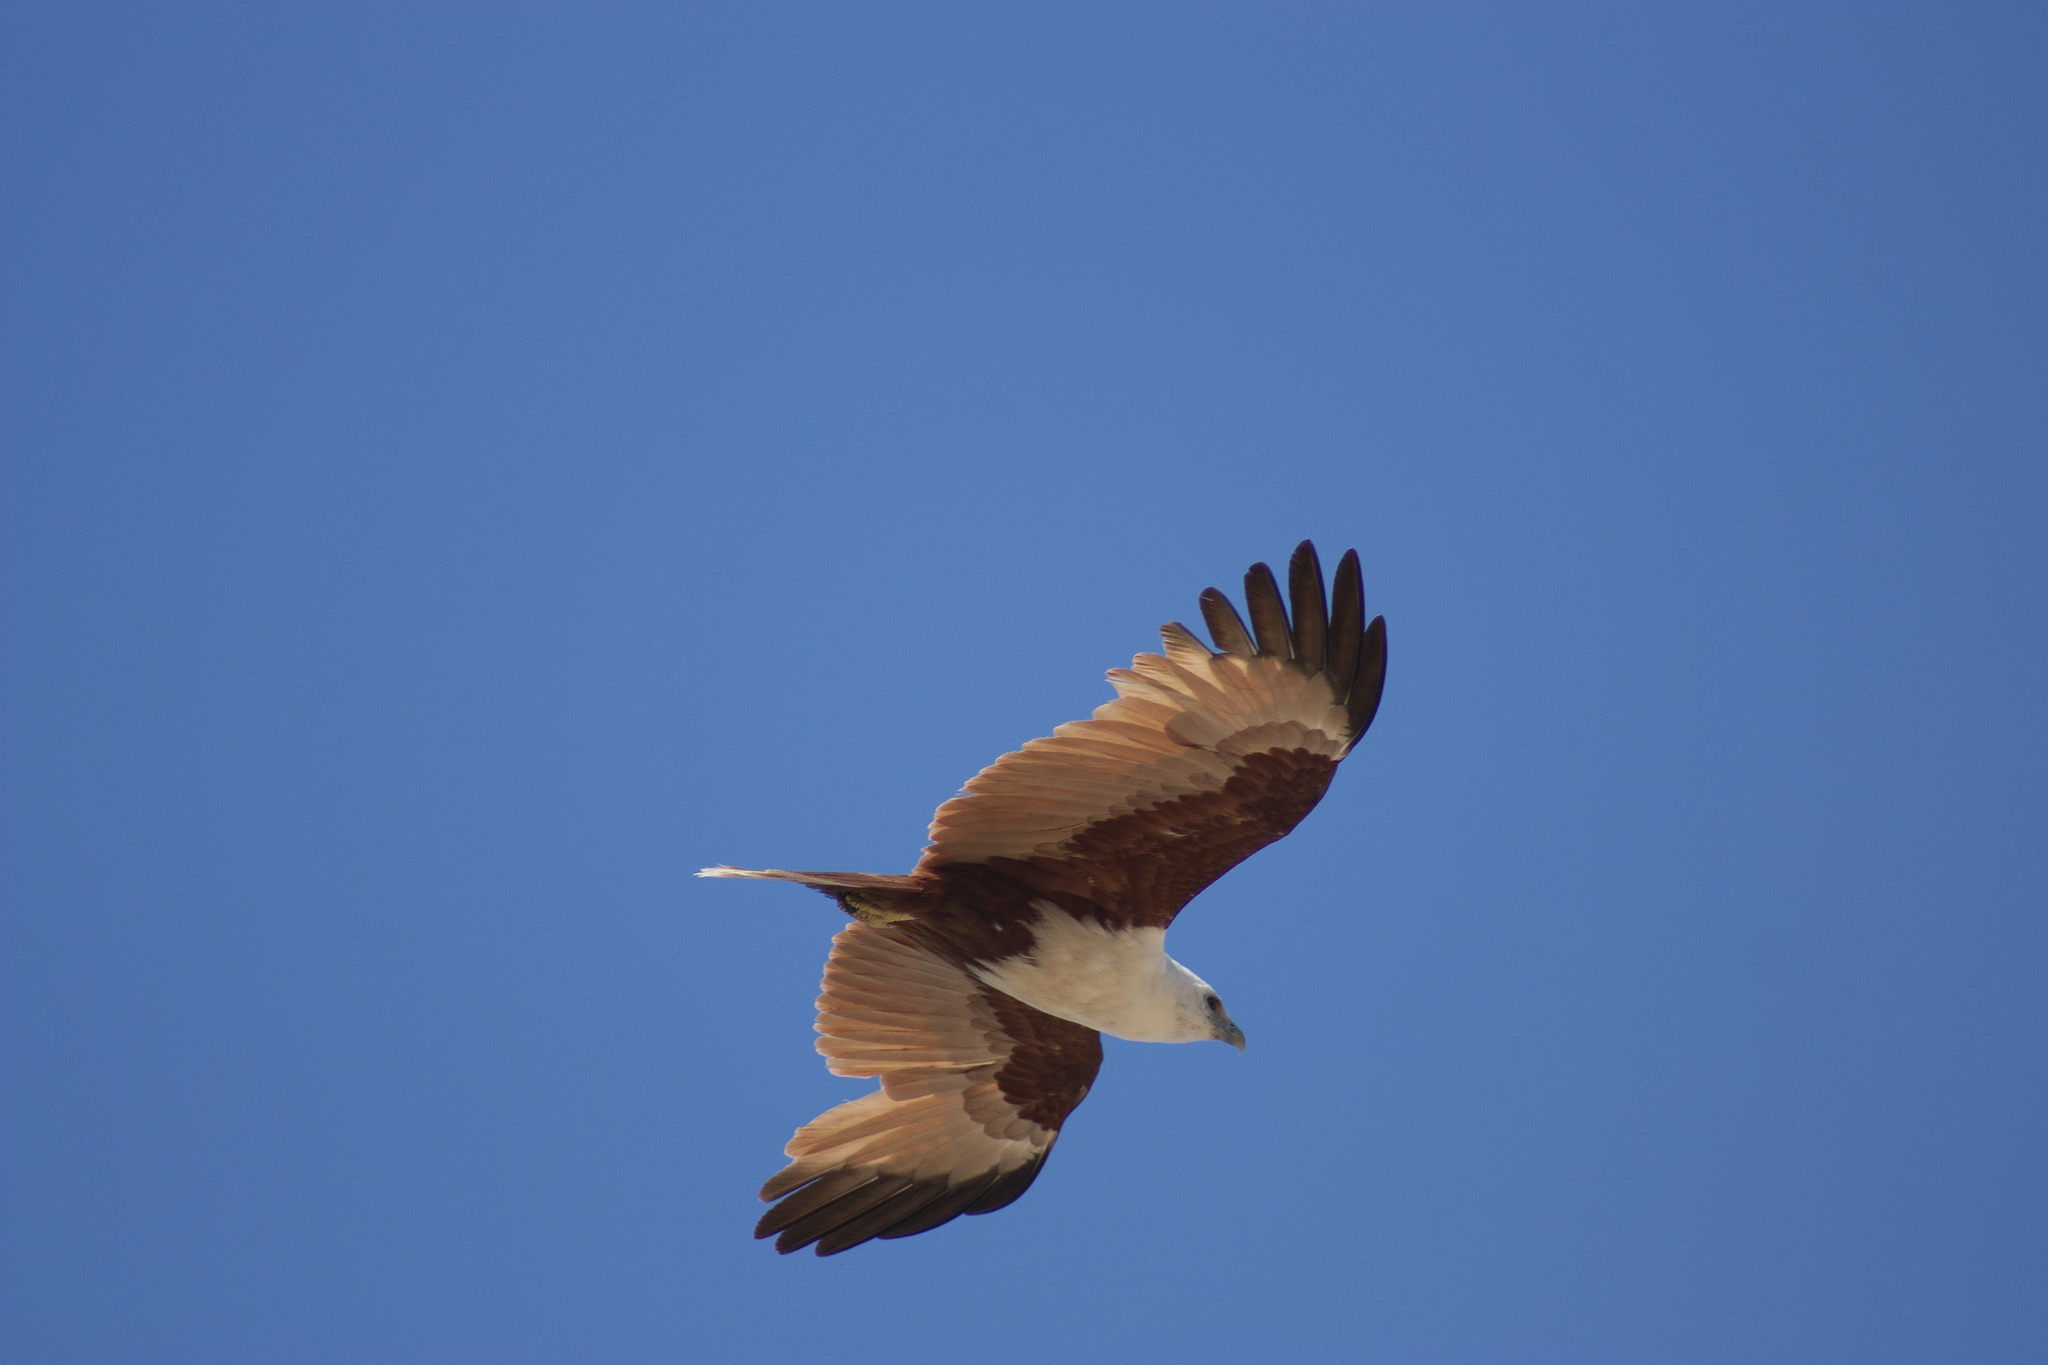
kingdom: Animalia
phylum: Chordata
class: Aves
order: Accipitriformes
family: Accipitridae
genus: Haliastur
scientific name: Haliastur indus
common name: Brahminy kite
